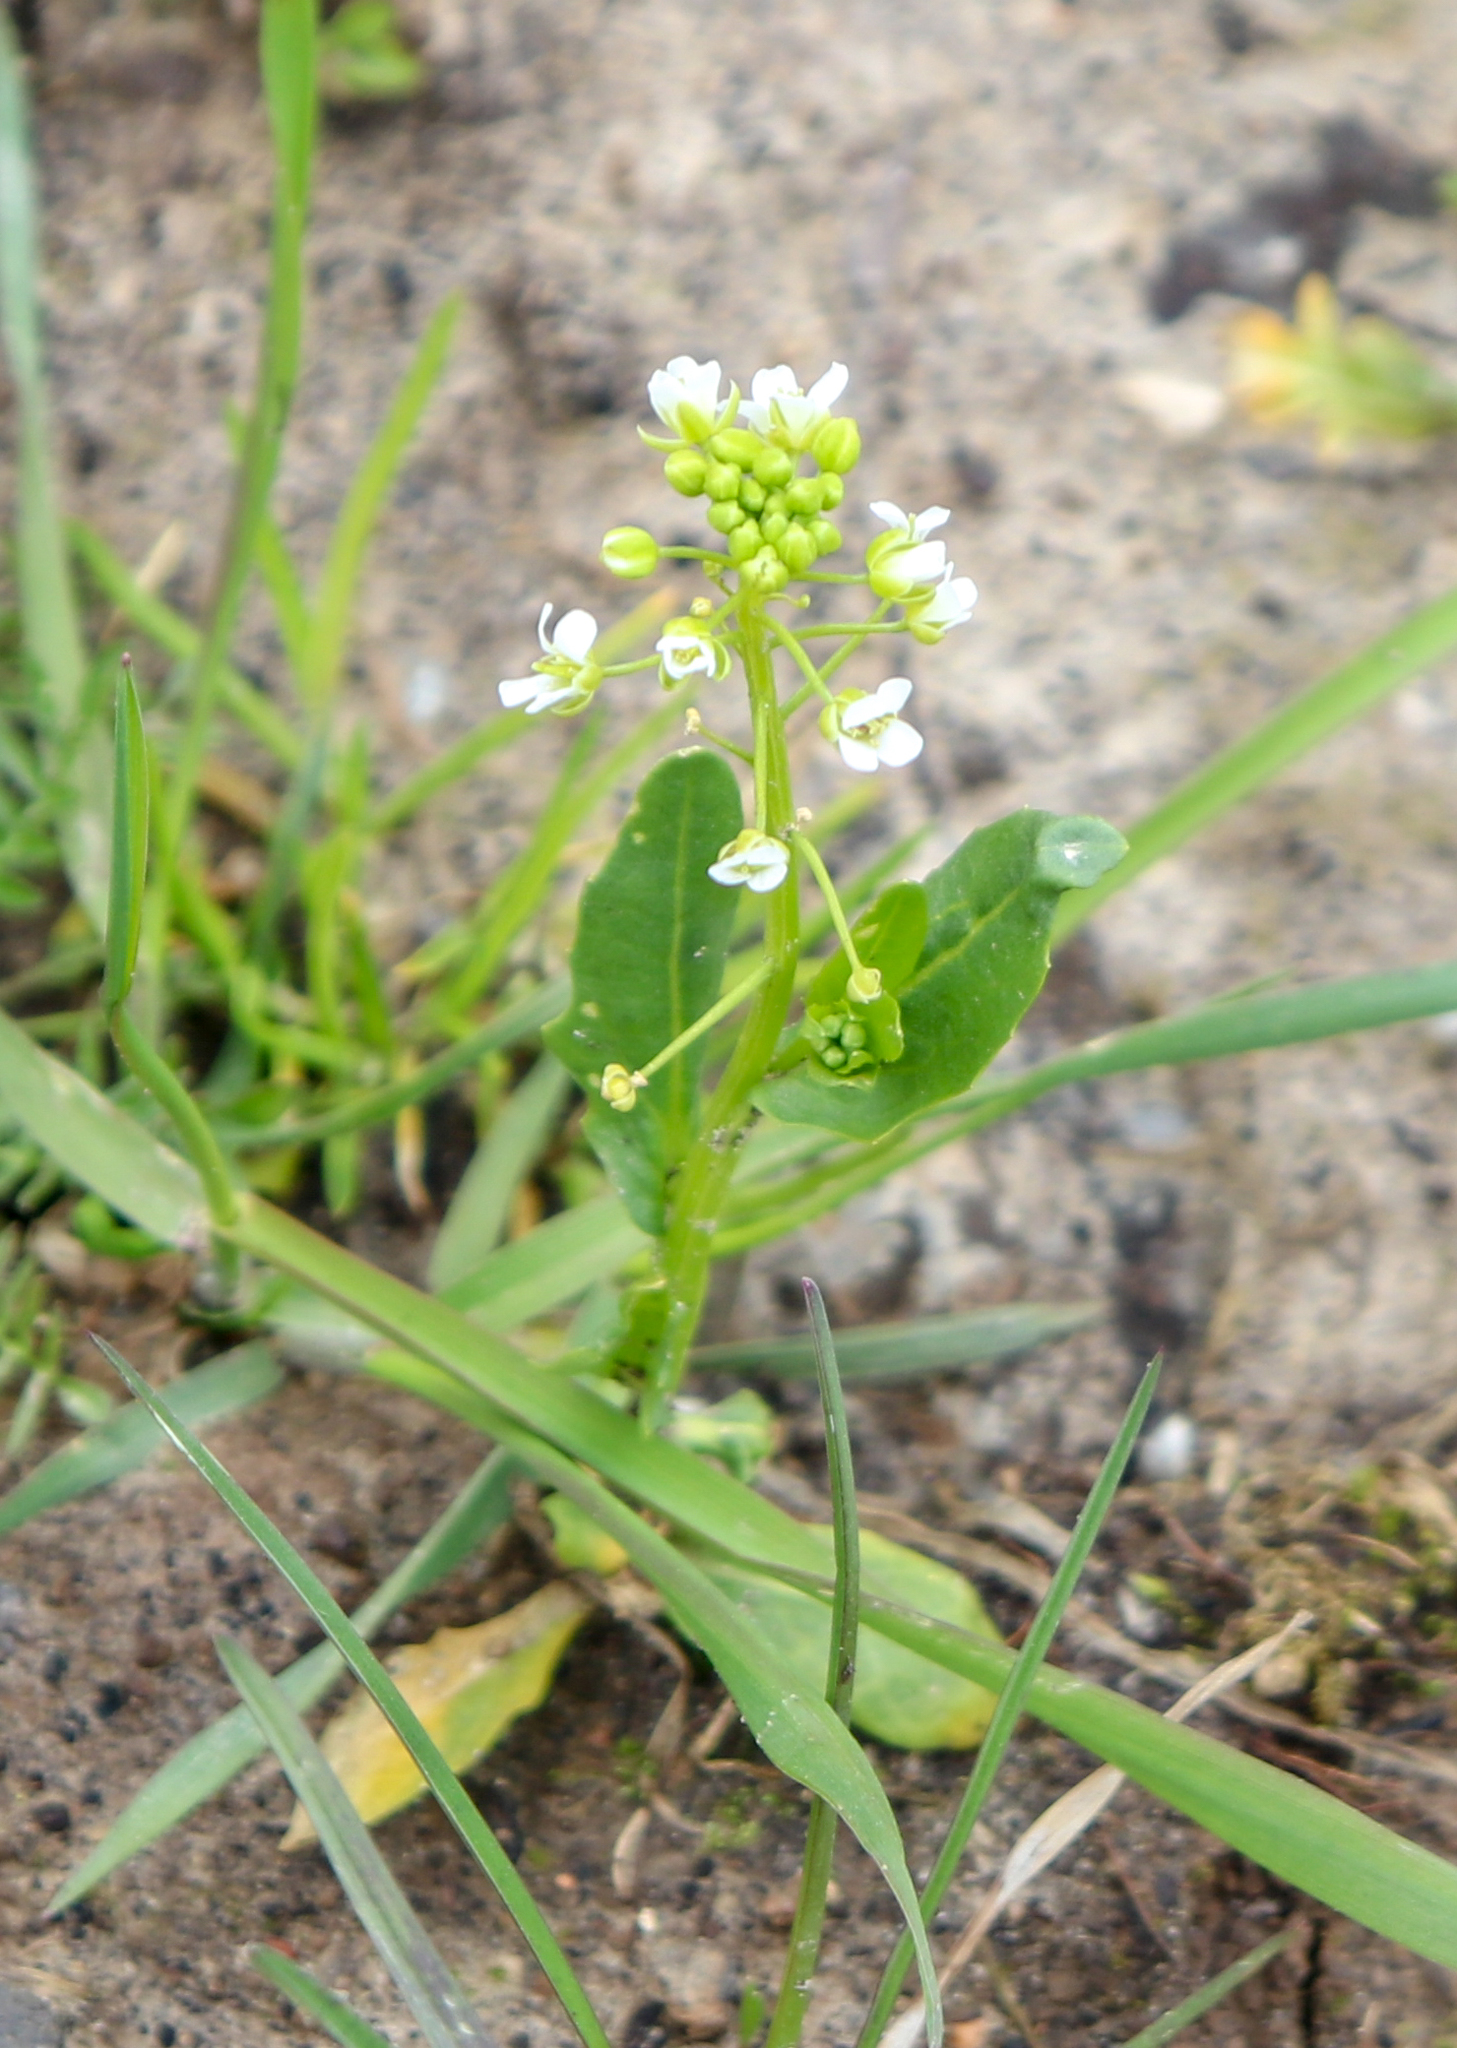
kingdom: Plantae
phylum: Tracheophyta
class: Magnoliopsida
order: Brassicales
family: Brassicaceae
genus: Thlaspi
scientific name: Thlaspi arvense
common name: Field pennycress
